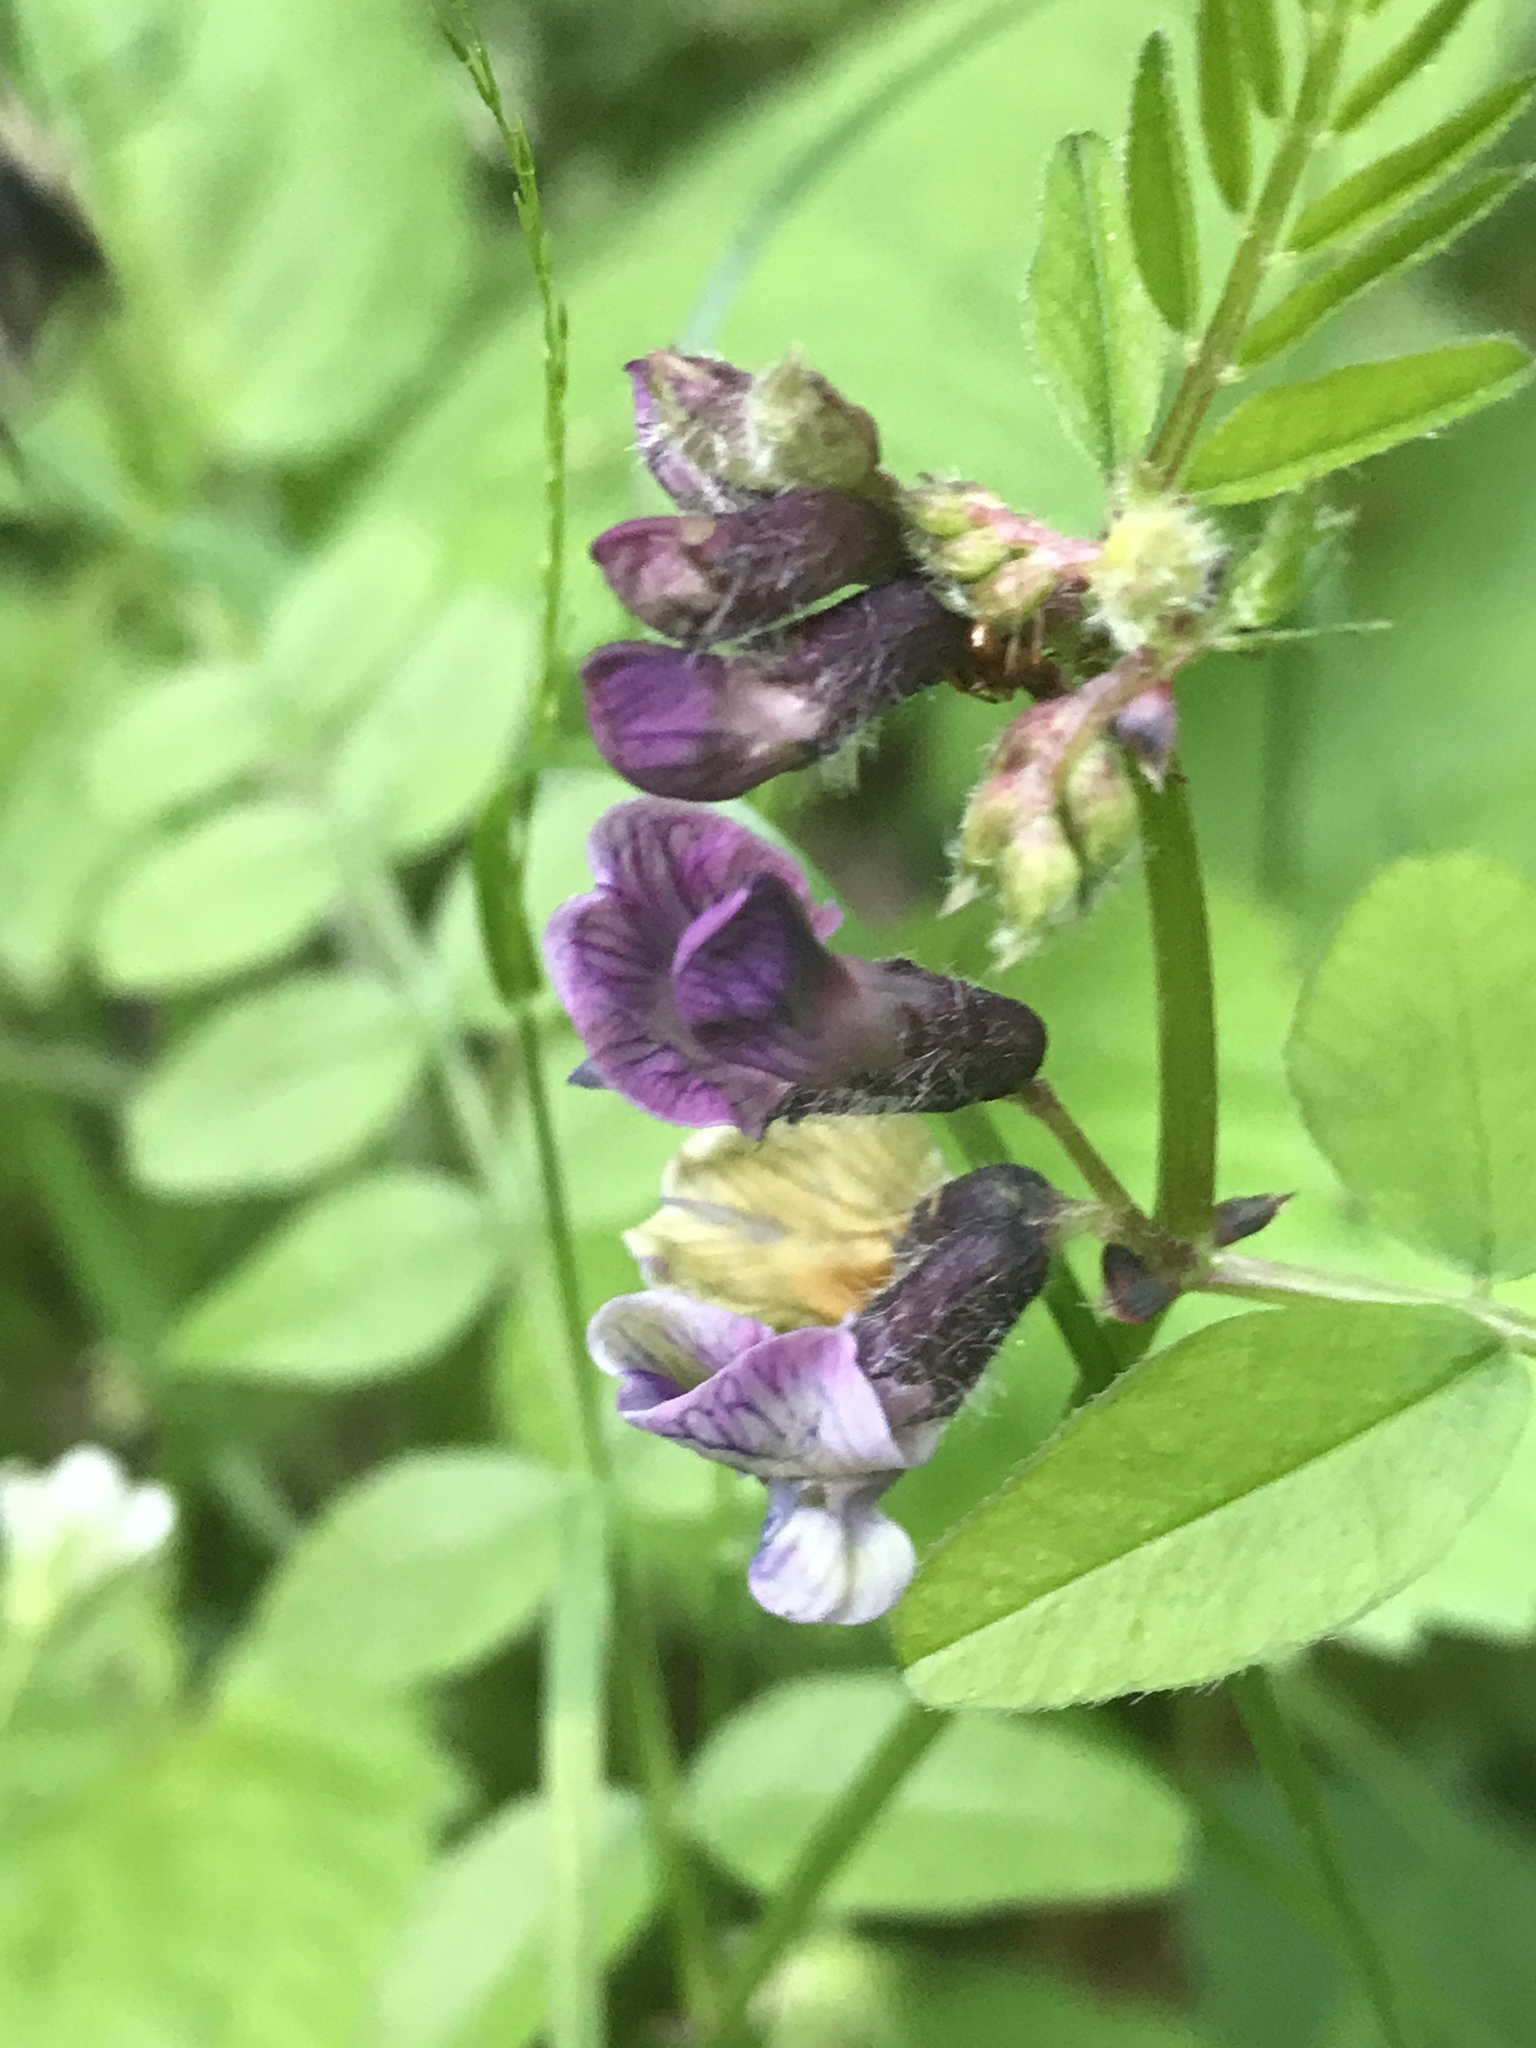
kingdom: Plantae
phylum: Tracheophyta
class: Magnoliopsida
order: Fabales
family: Fabaceae
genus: Vicia
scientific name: Vicia sepium
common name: Bush vetch
